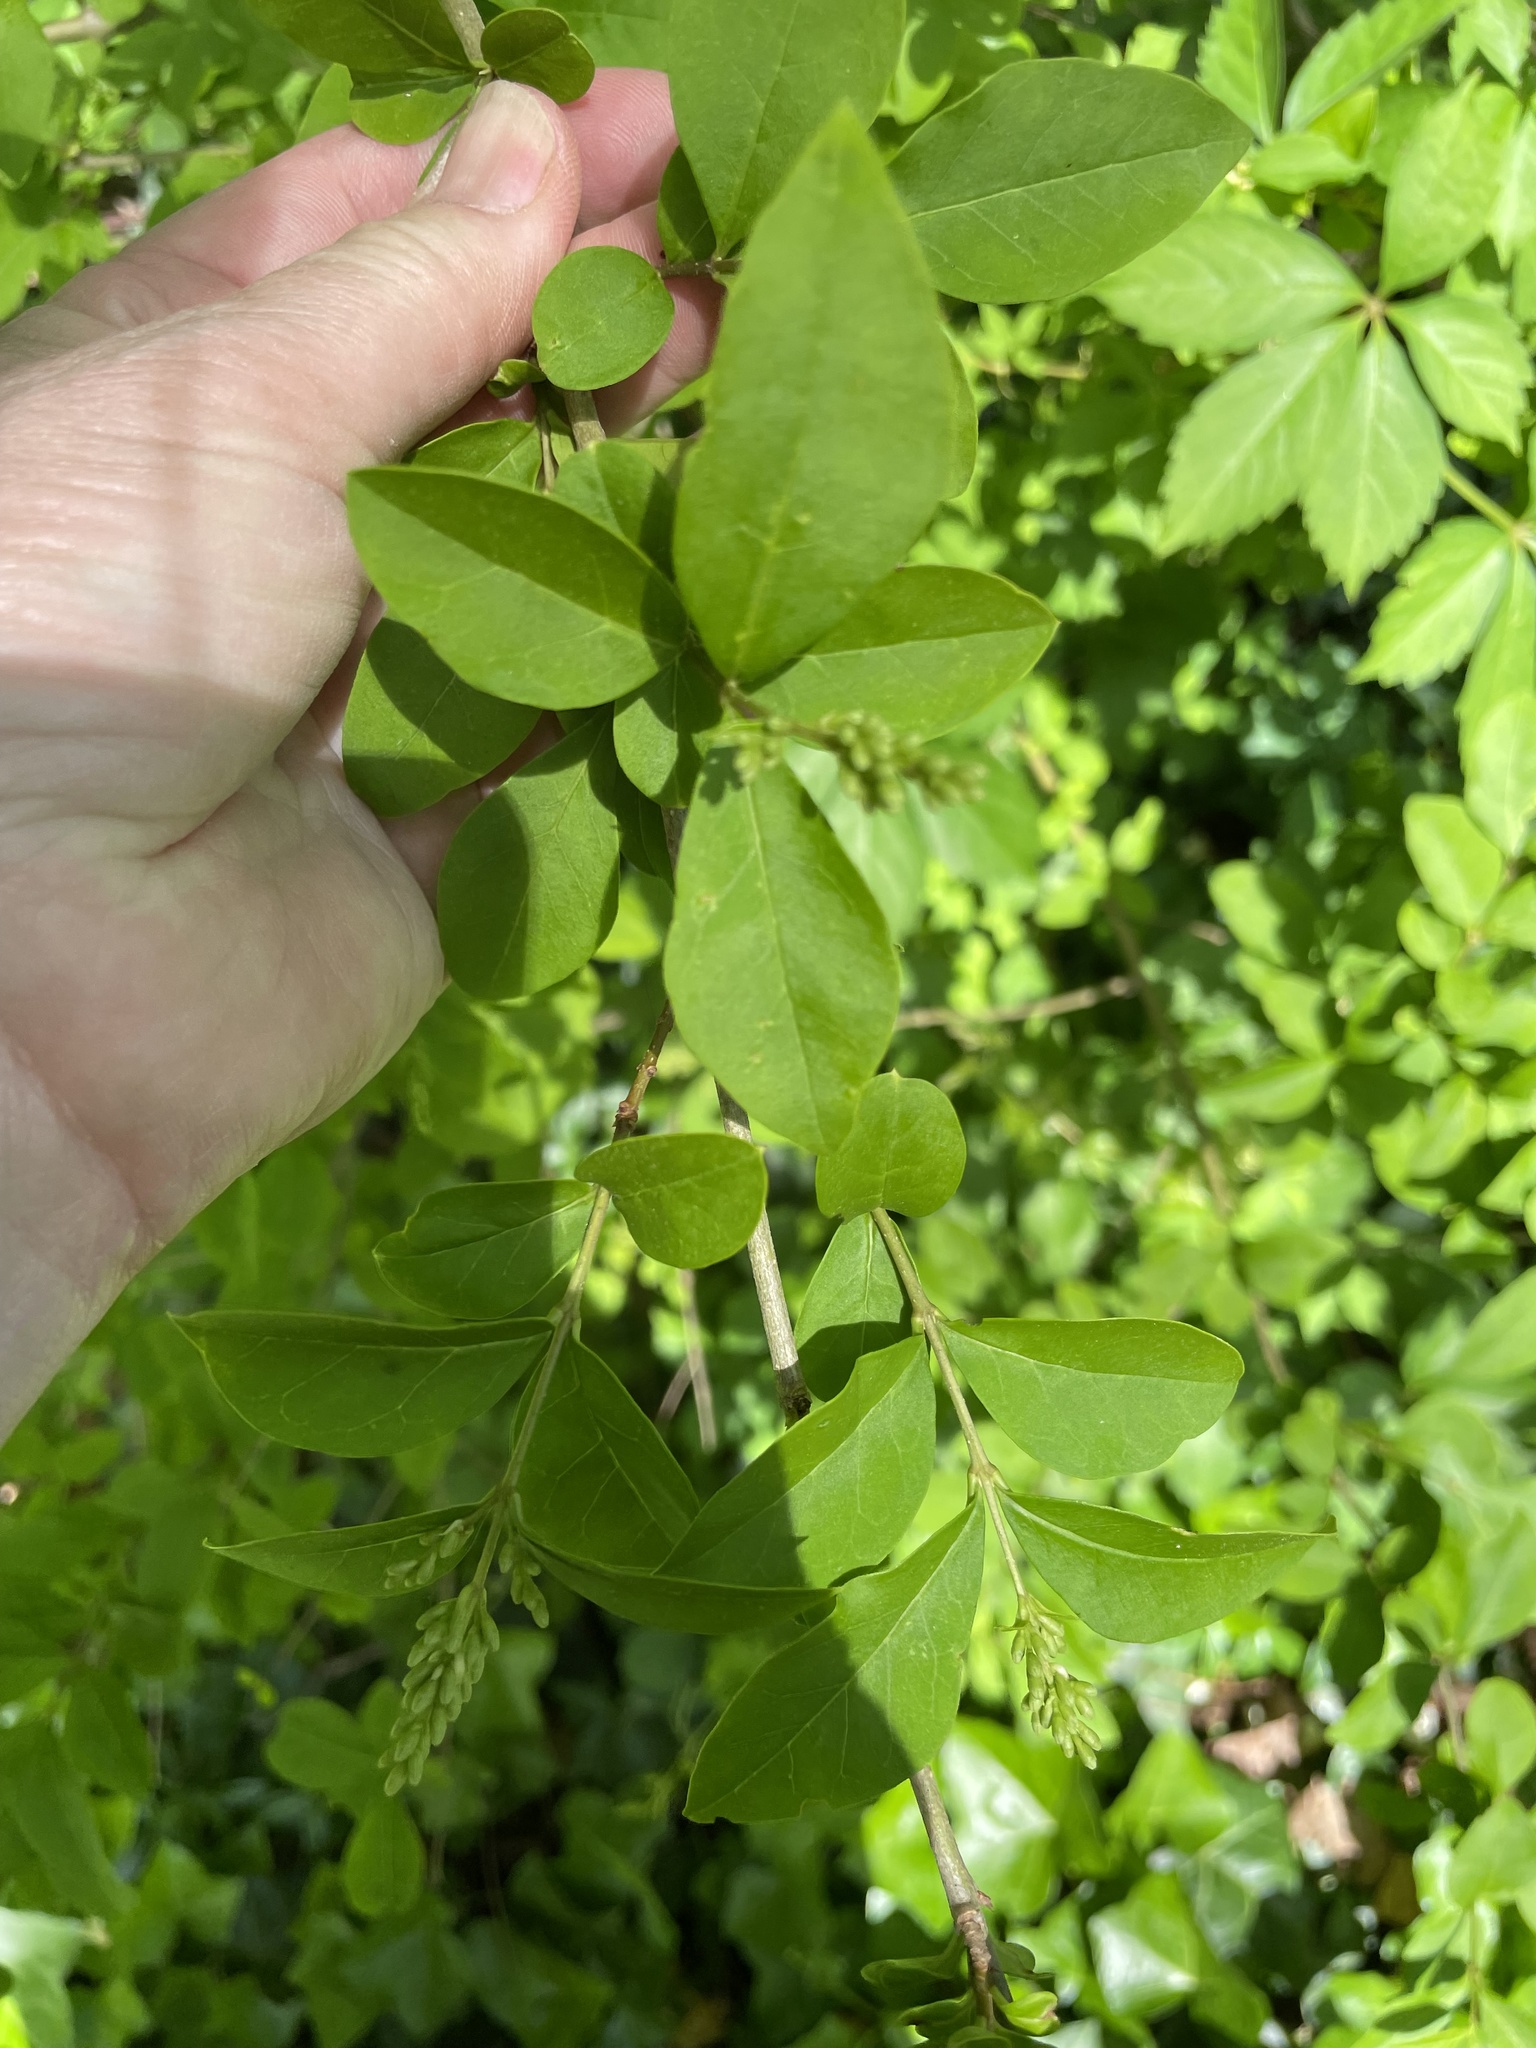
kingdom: Plantae
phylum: Tracheophyta
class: Magnoliopsida
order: Lamiales
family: Oleaceae
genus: Ligustrum
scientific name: Ligustrum
